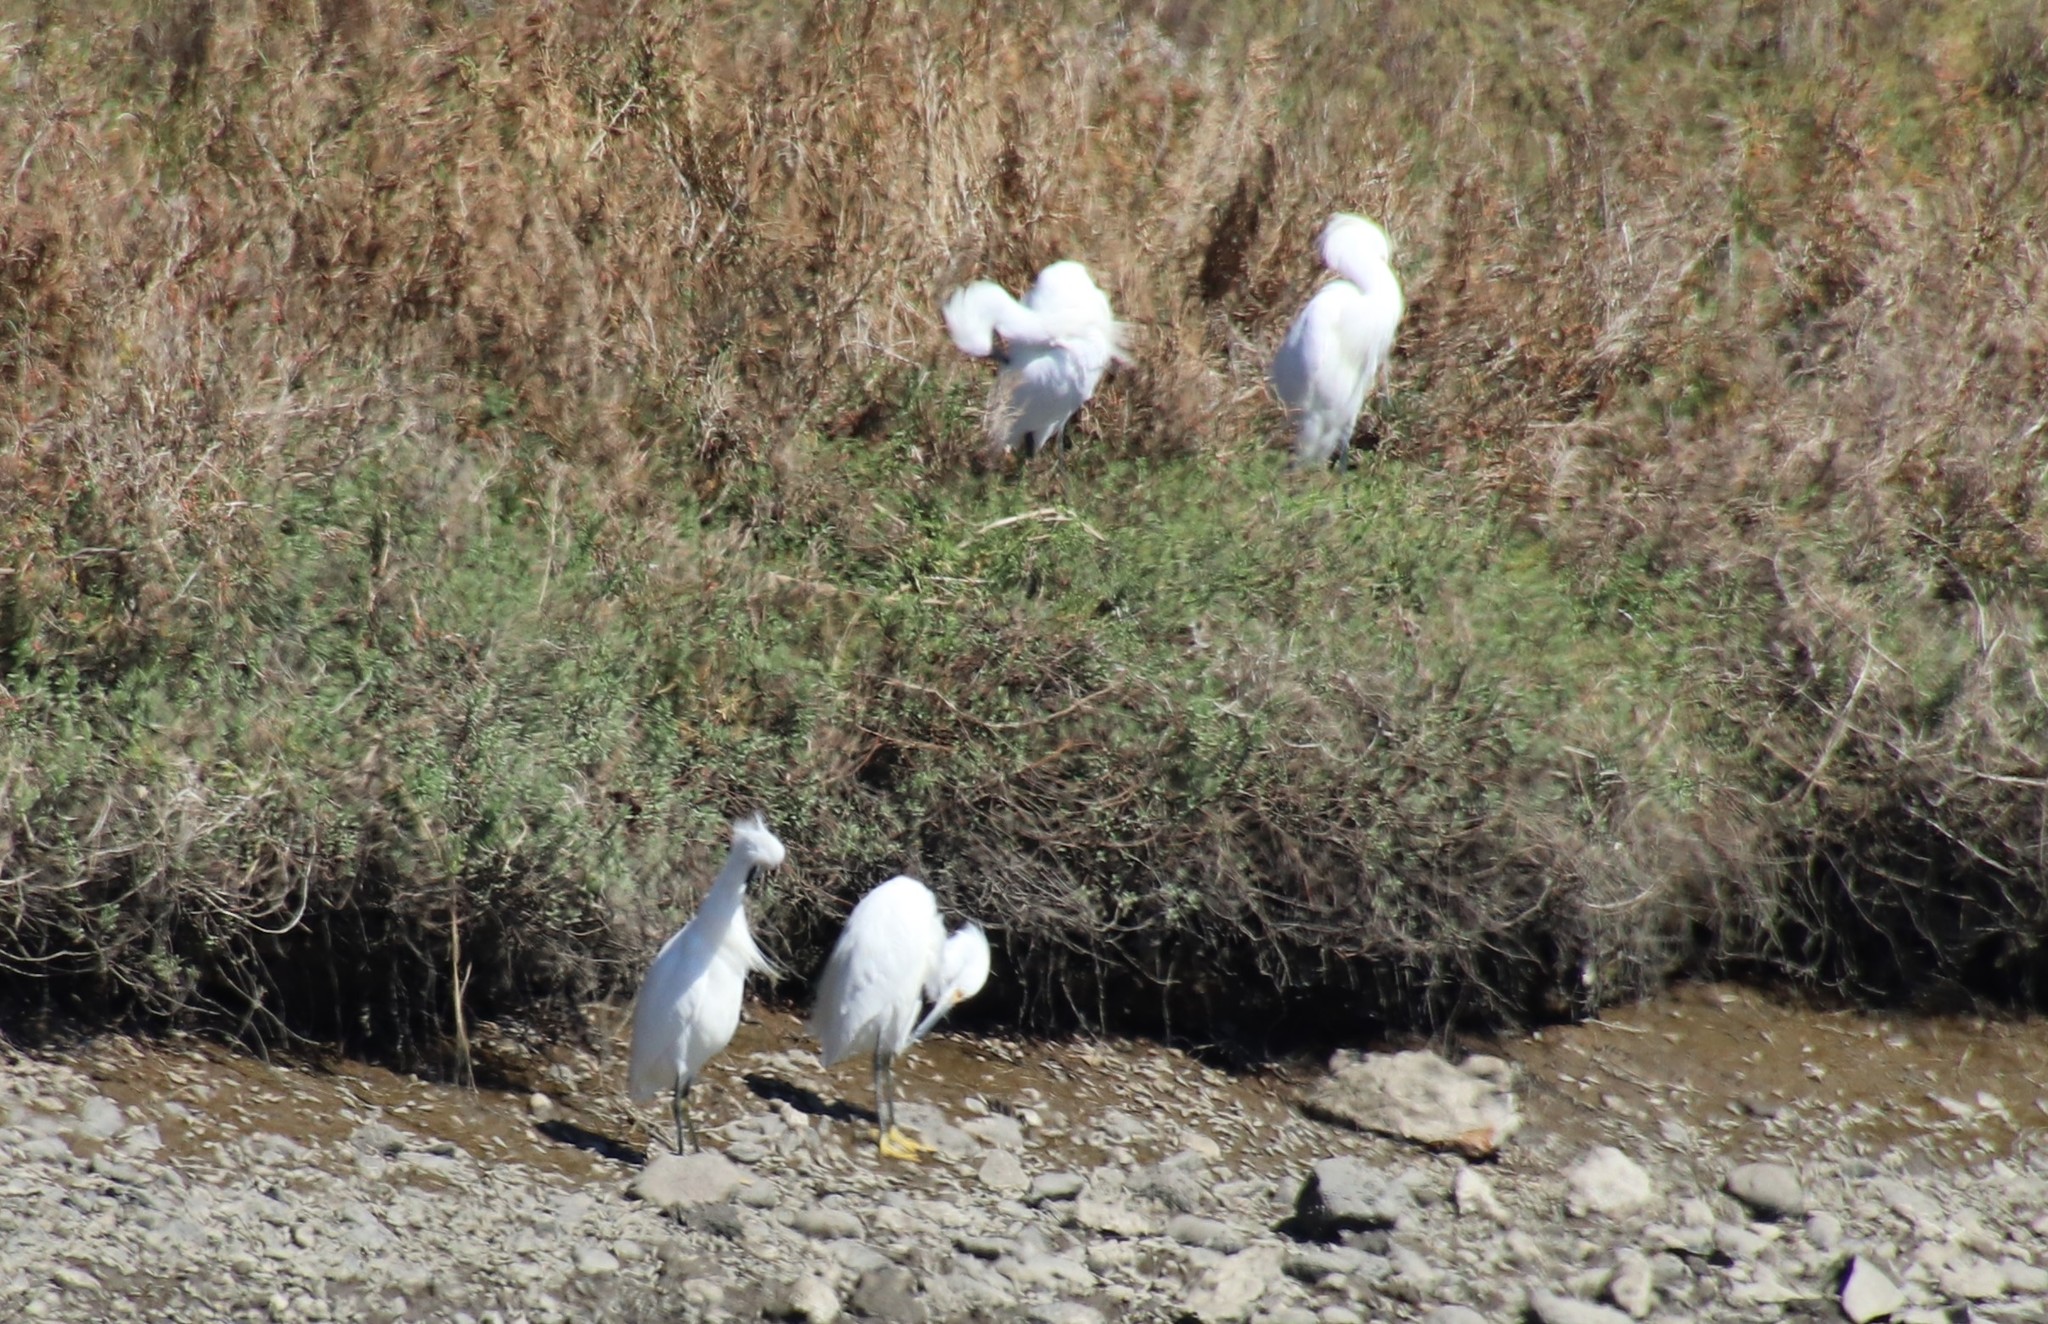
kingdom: Animalia
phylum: Chordata
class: Aves
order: Pelecaniformes
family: Ardeidae
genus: Egretta
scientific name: Egretta thula
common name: Snowy egret
